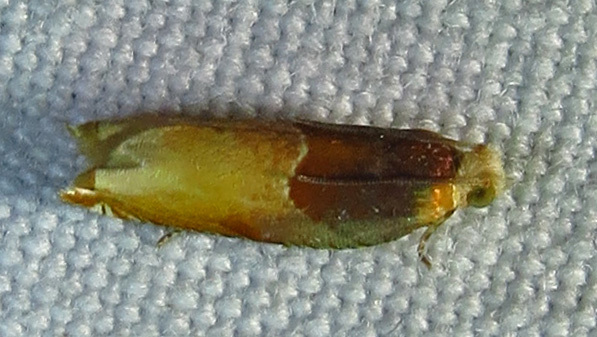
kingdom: Animalia
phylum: Arthropoda
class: Insecta
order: Lepidoptera
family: Tortricidae
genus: Ancylis
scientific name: Ancylis divisana
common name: Two-toned ancylis moth
